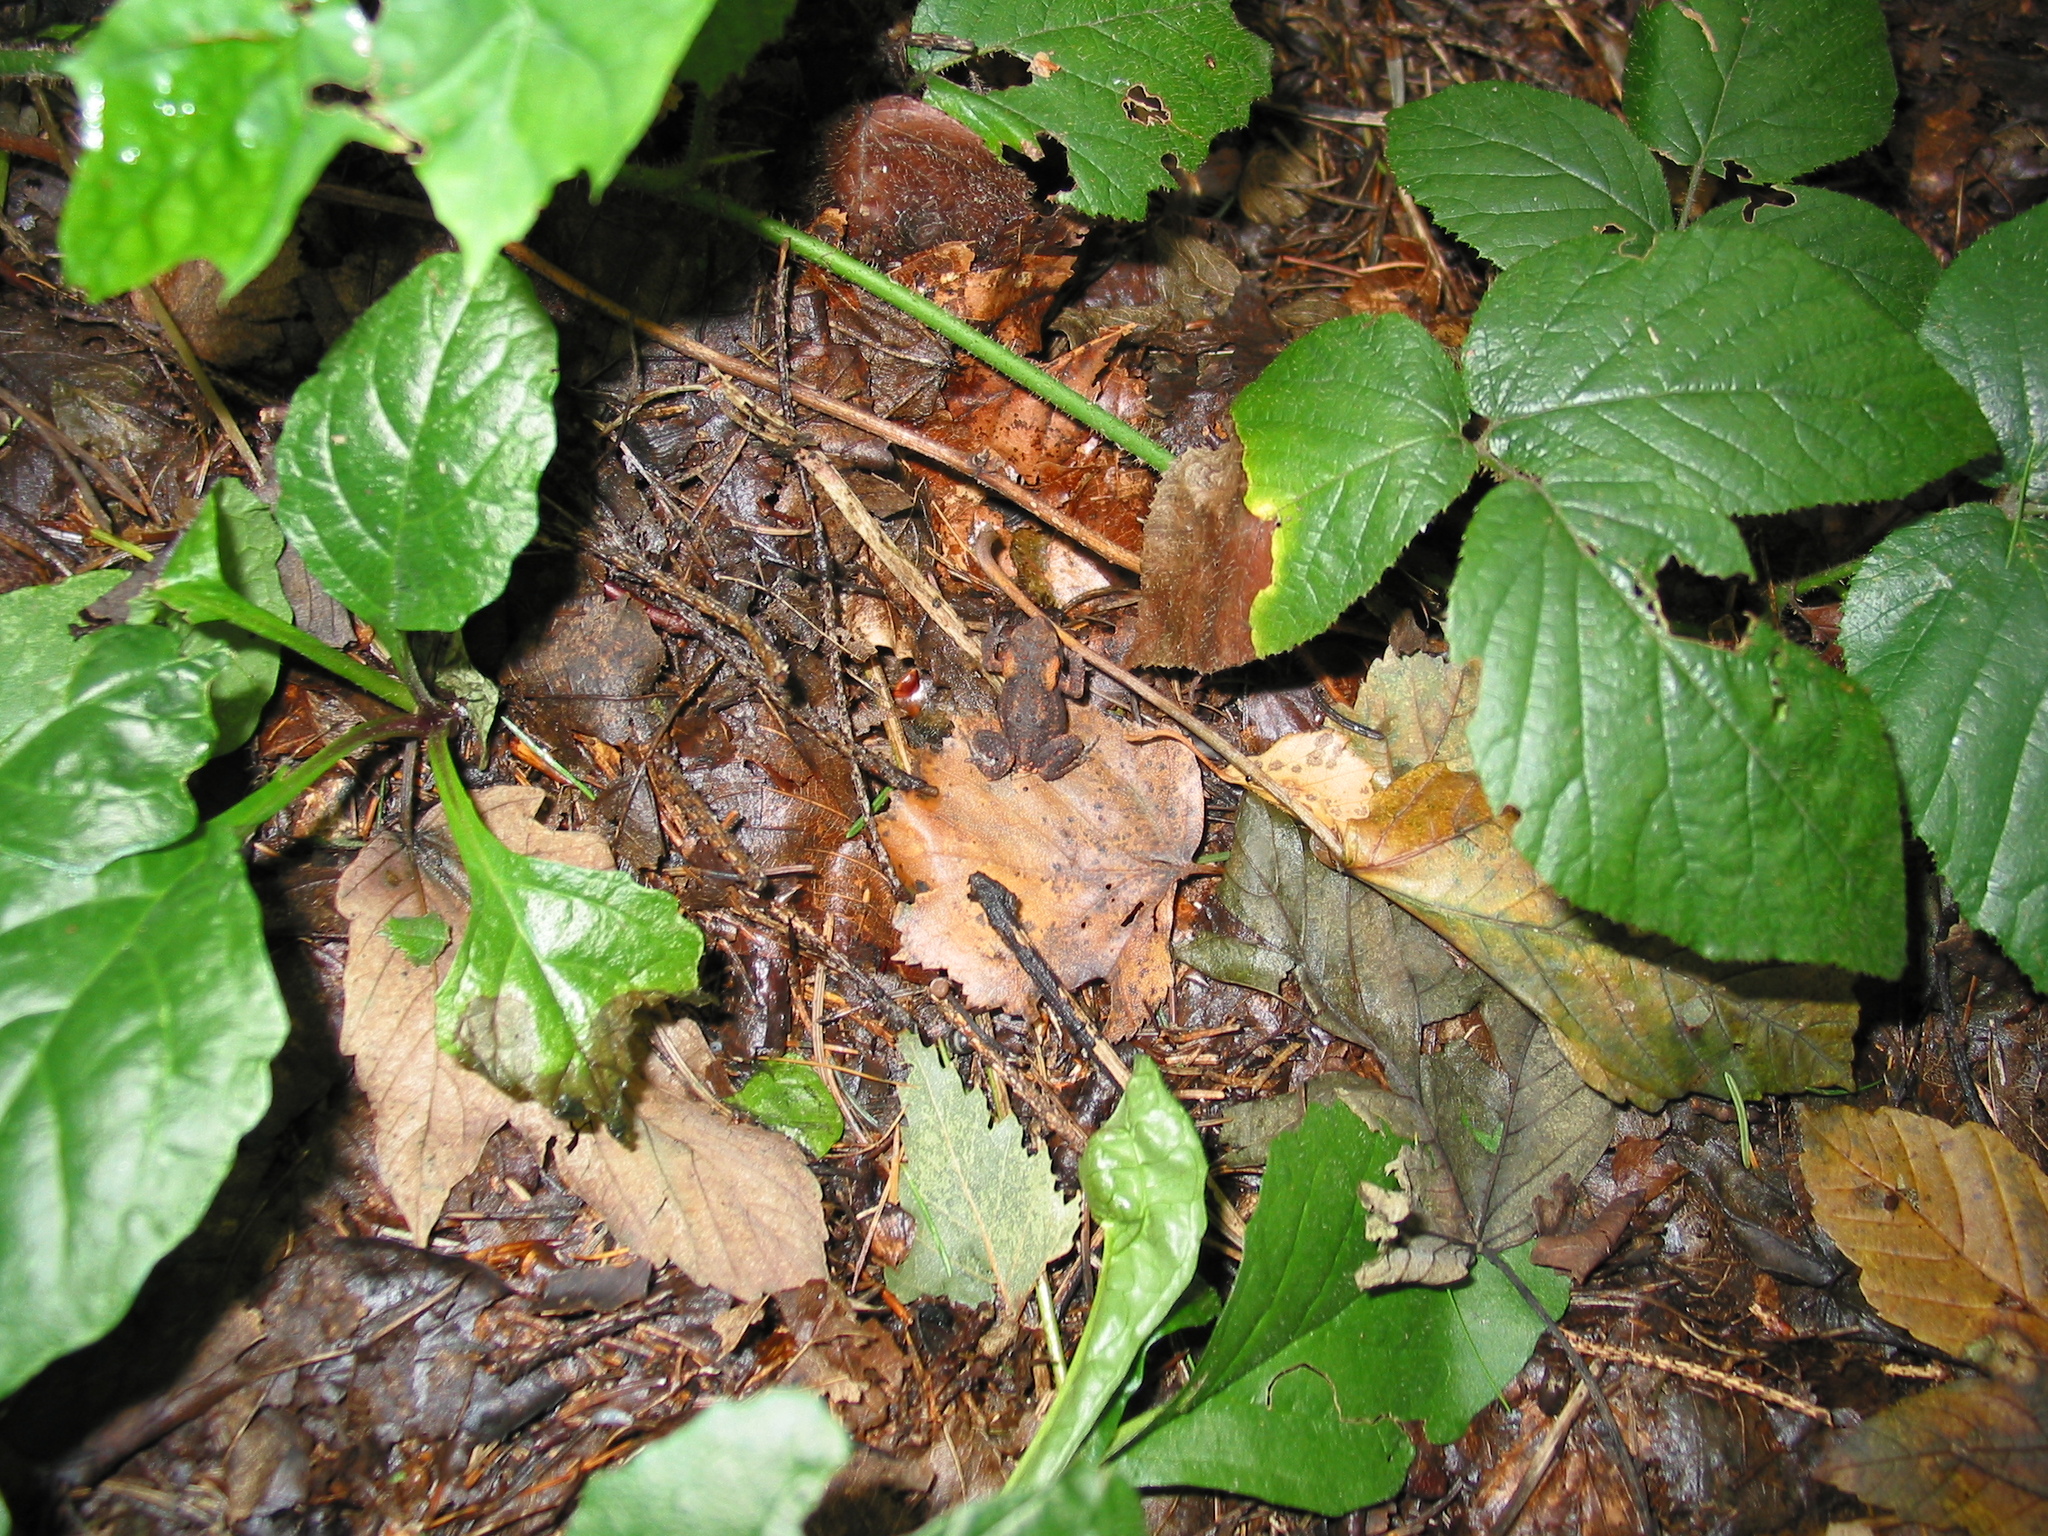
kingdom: Animalia
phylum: Chordata
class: Amphibia
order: Anura
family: Bufonidae
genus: Bufo
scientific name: Bufo bufo
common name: Common toad
